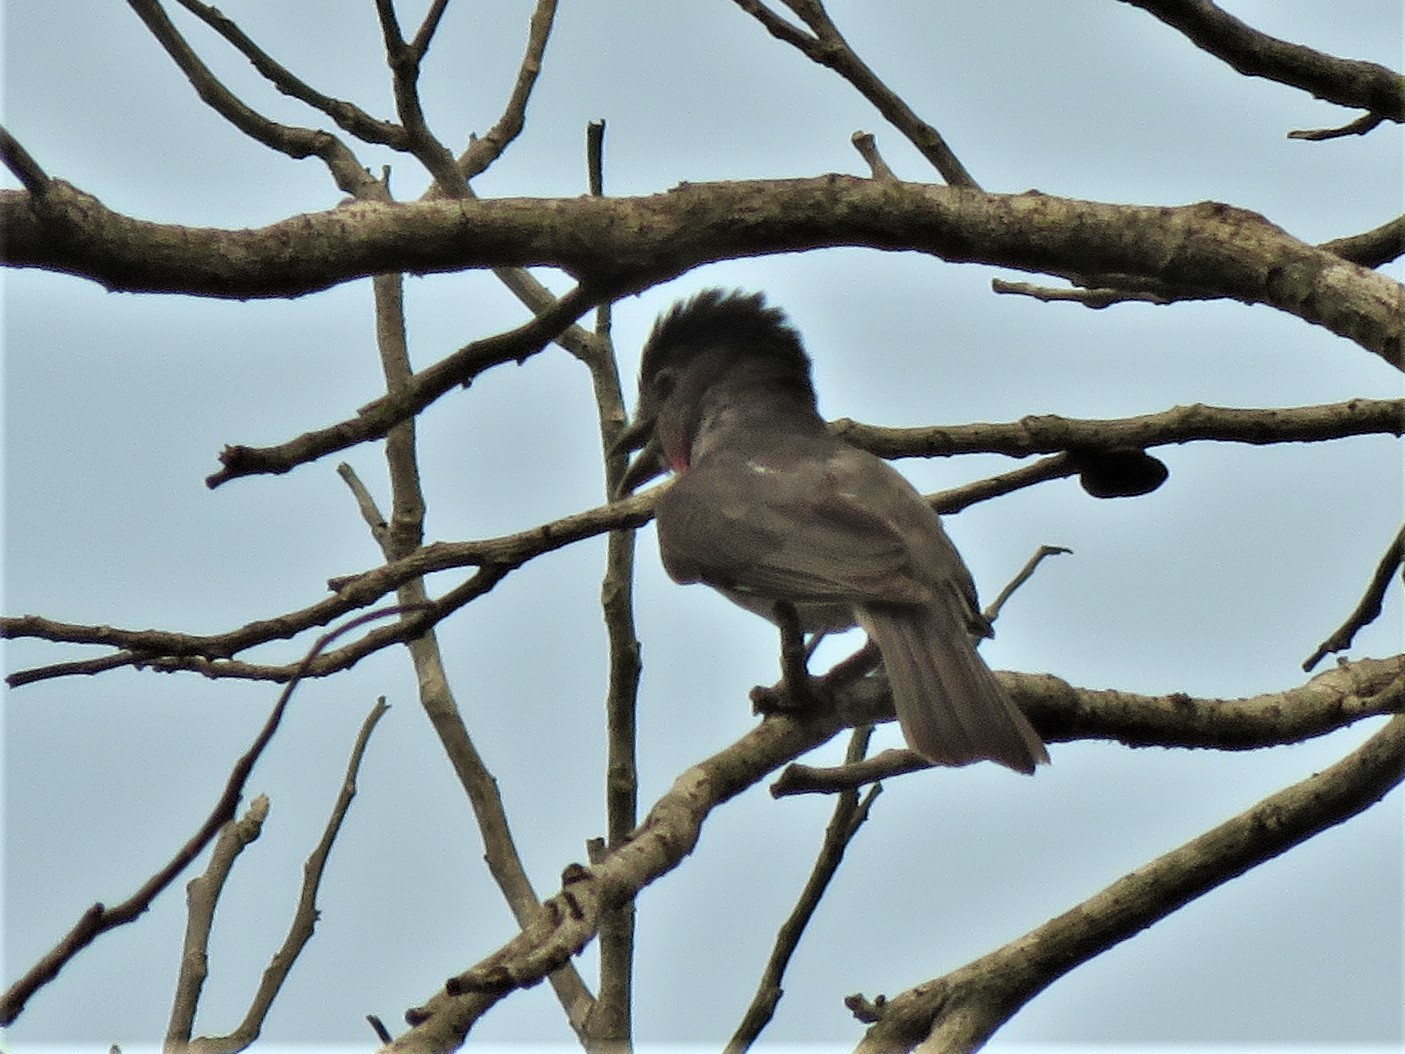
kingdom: Animalia
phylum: Chordata
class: Aves
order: Passeriformes
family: Cotingidae
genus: Pachyramphus
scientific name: Pachyramphus aglaiae
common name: Rose-throated becard
